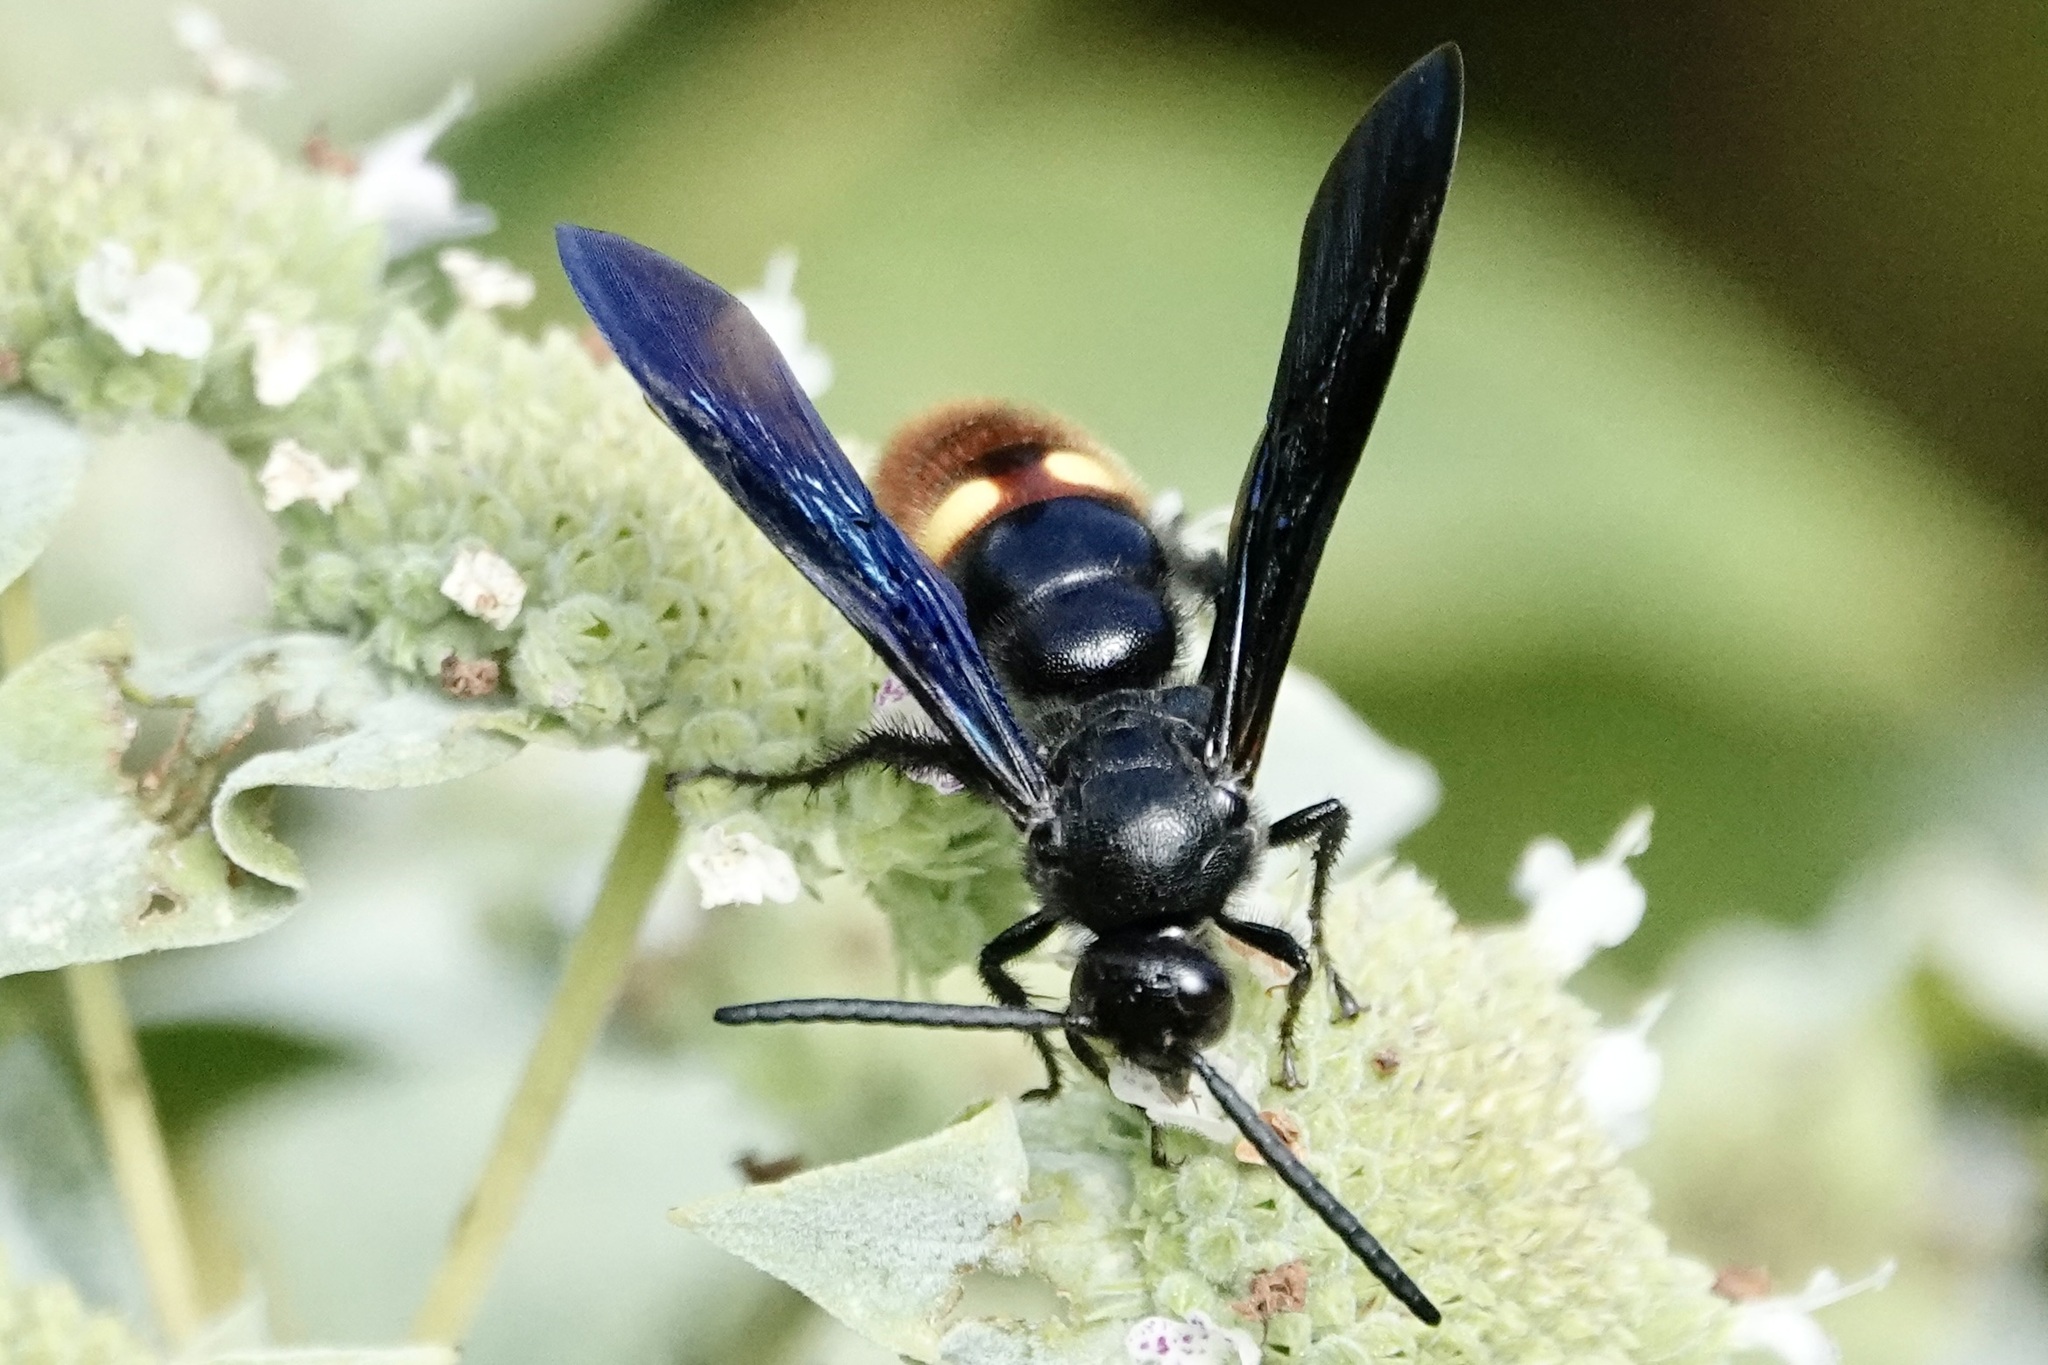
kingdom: Animalia
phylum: Arthropoda
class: Insecta
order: Hymenoptera
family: Scoliidae
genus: Scolia
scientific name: Scolia dubia
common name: Blue-winged scoliid wasp
